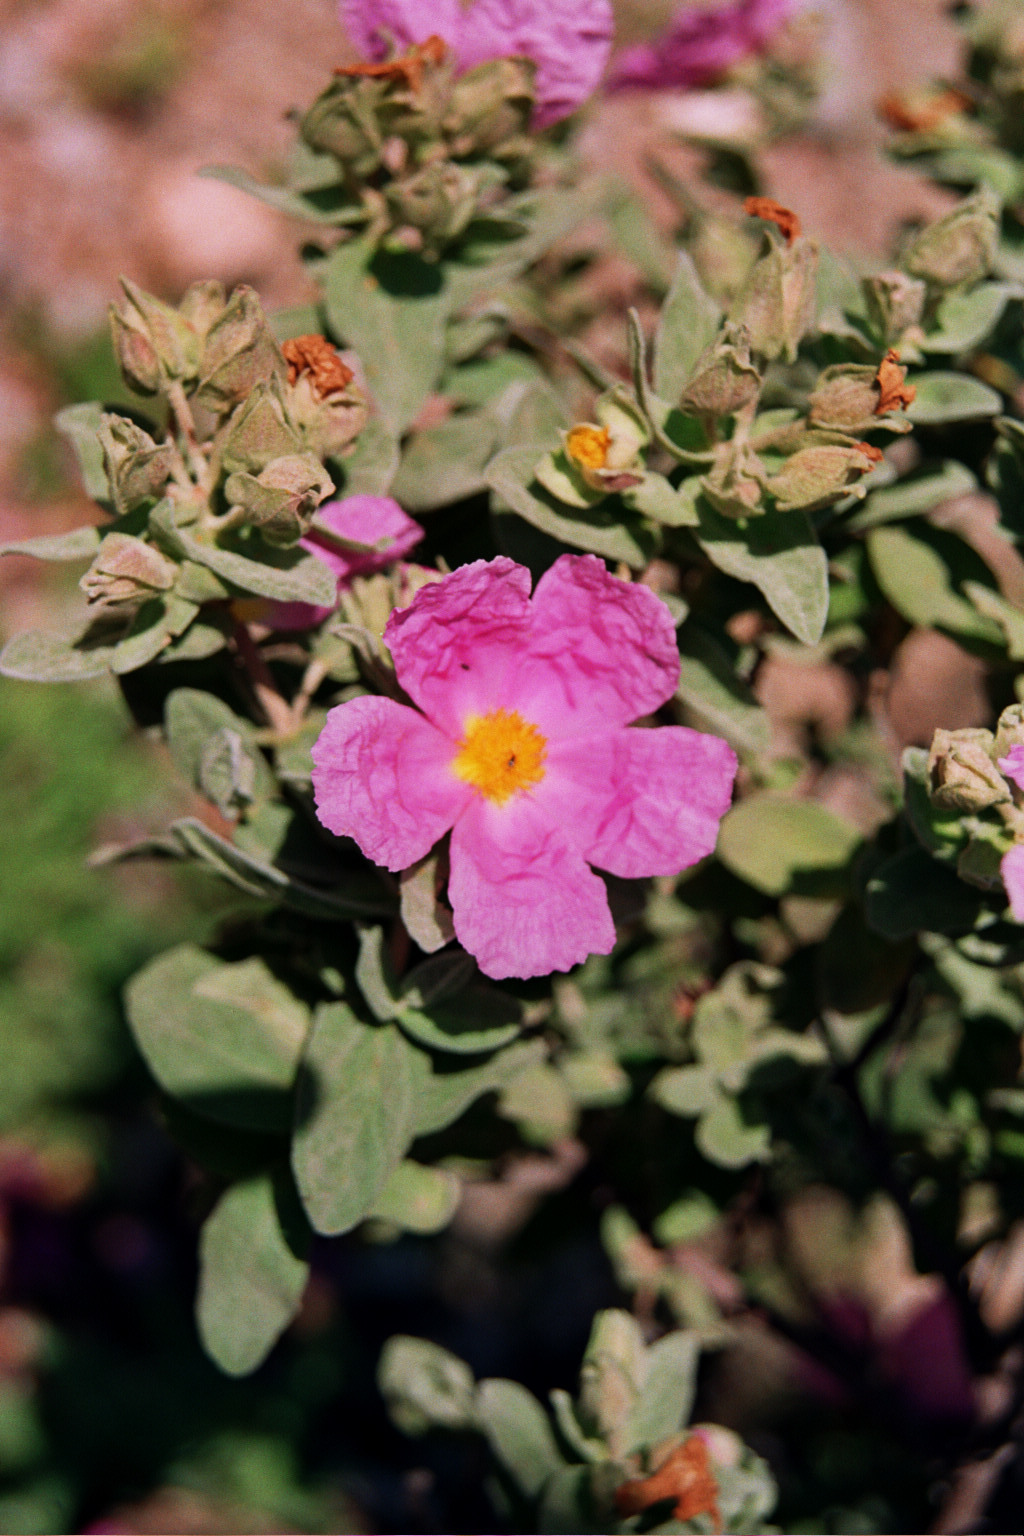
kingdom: Plantae
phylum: Tracheophyta
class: Magnoliopsida
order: Malvales
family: Cistaceae
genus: Cistus
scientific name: Cistus albidus
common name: White-leaf rock-rose
